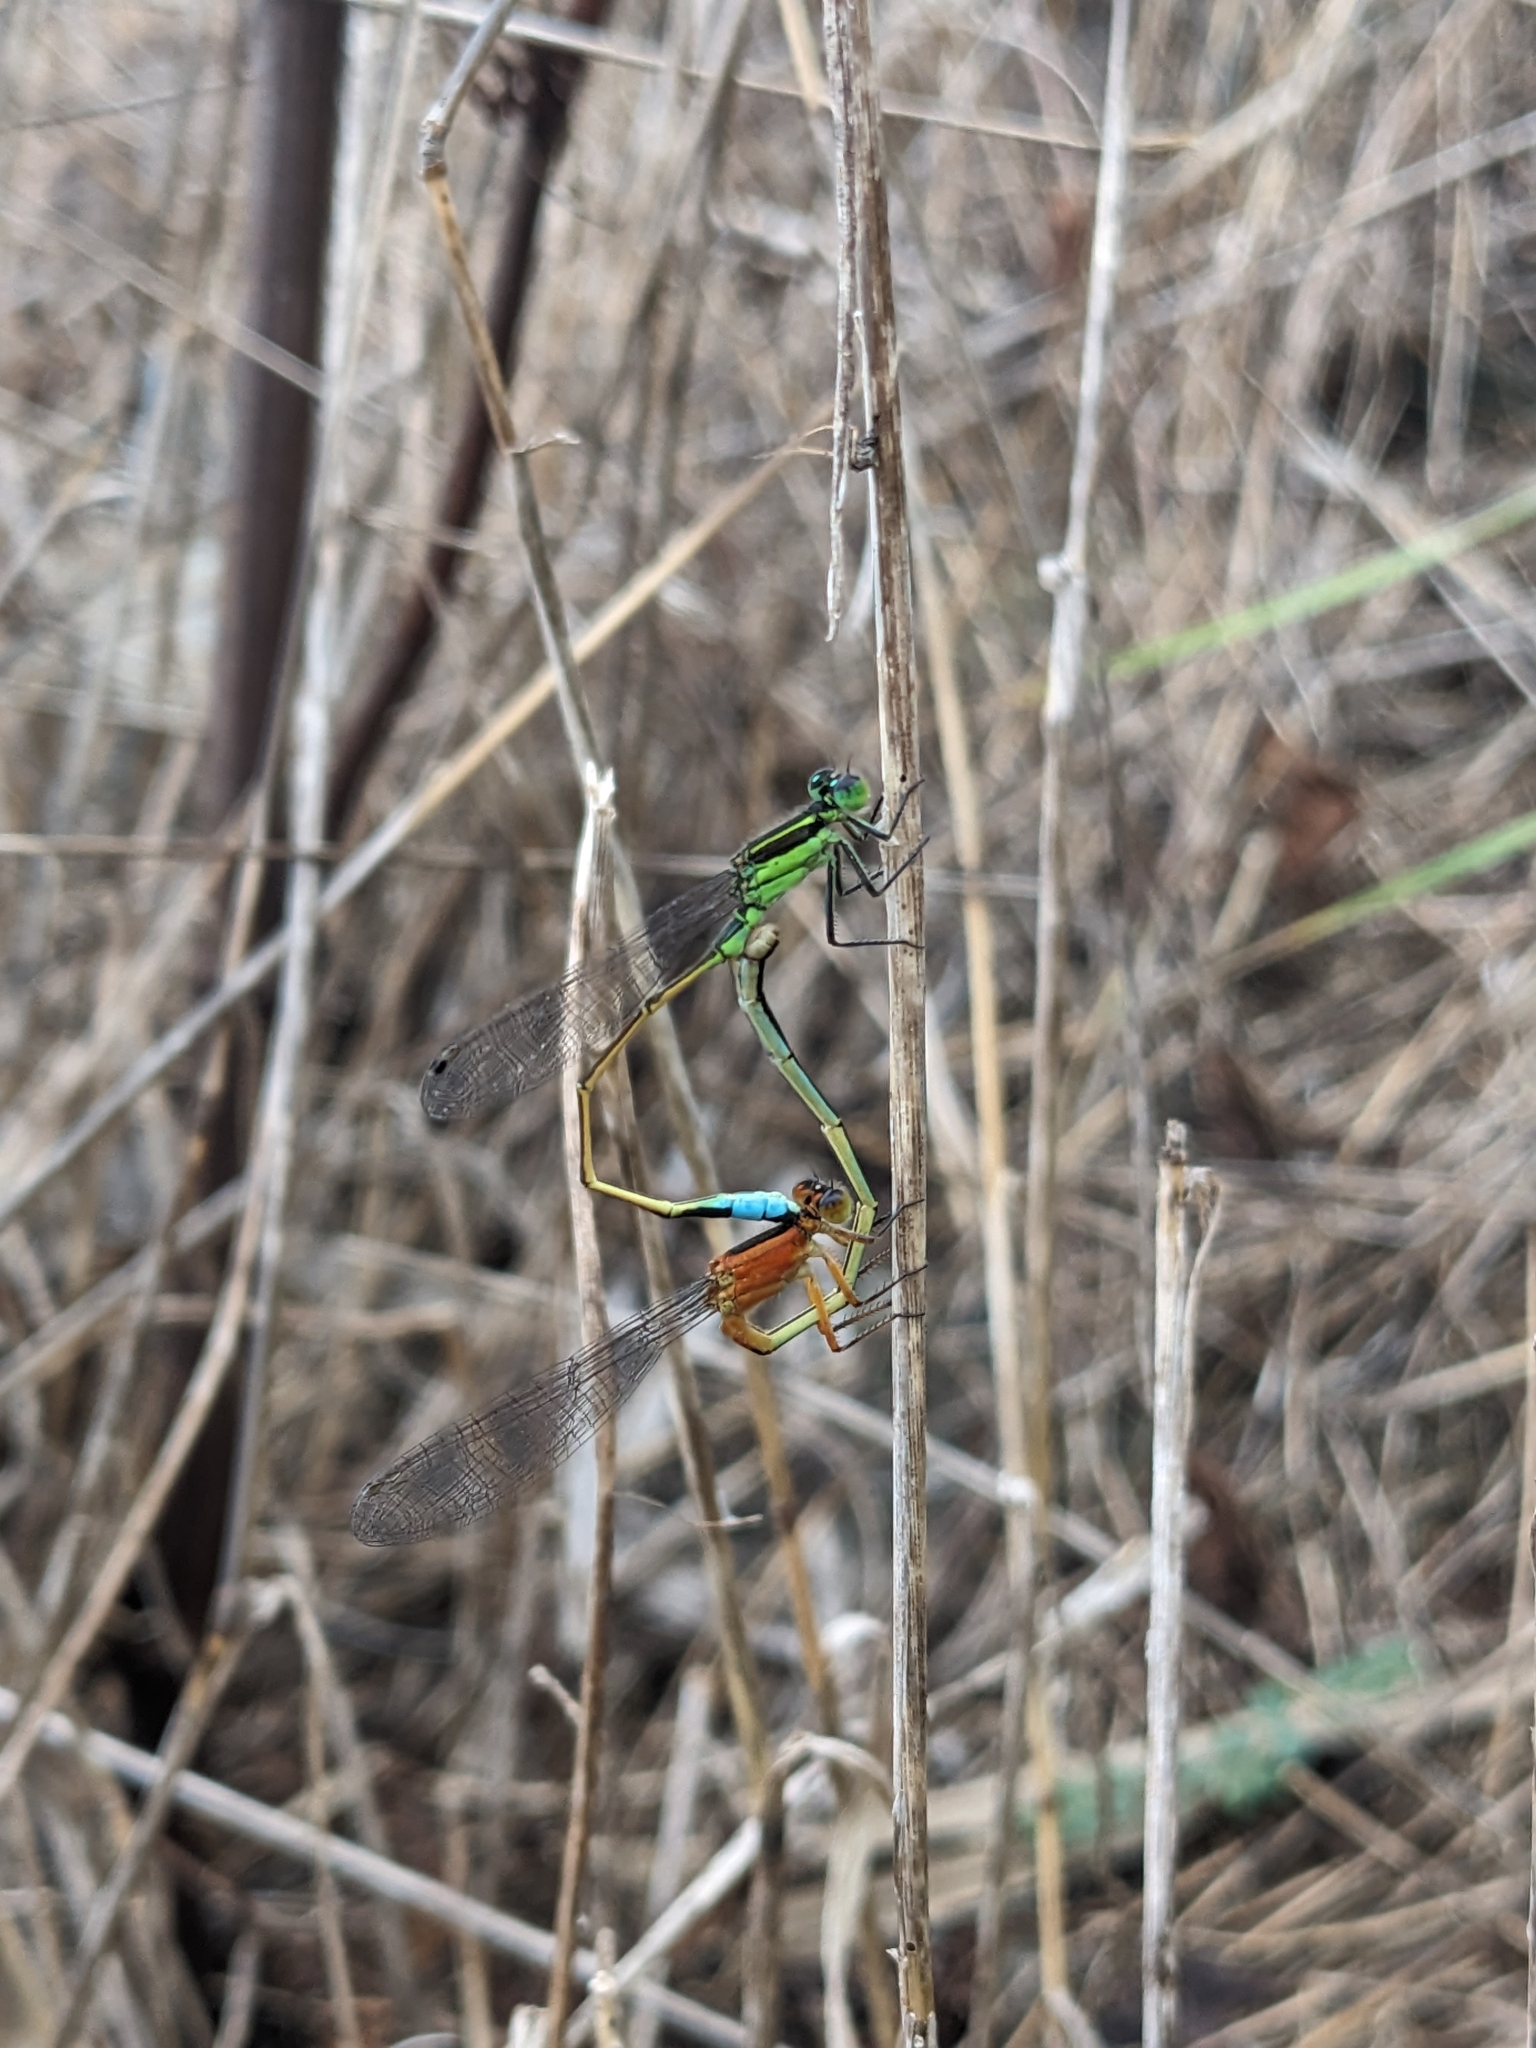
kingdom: Animalia
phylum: Arthropoda
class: Insecta
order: Odonata
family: Coenagrionidae
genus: Ischnura
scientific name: Ischnura ramburii
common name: Rambur's forktail
